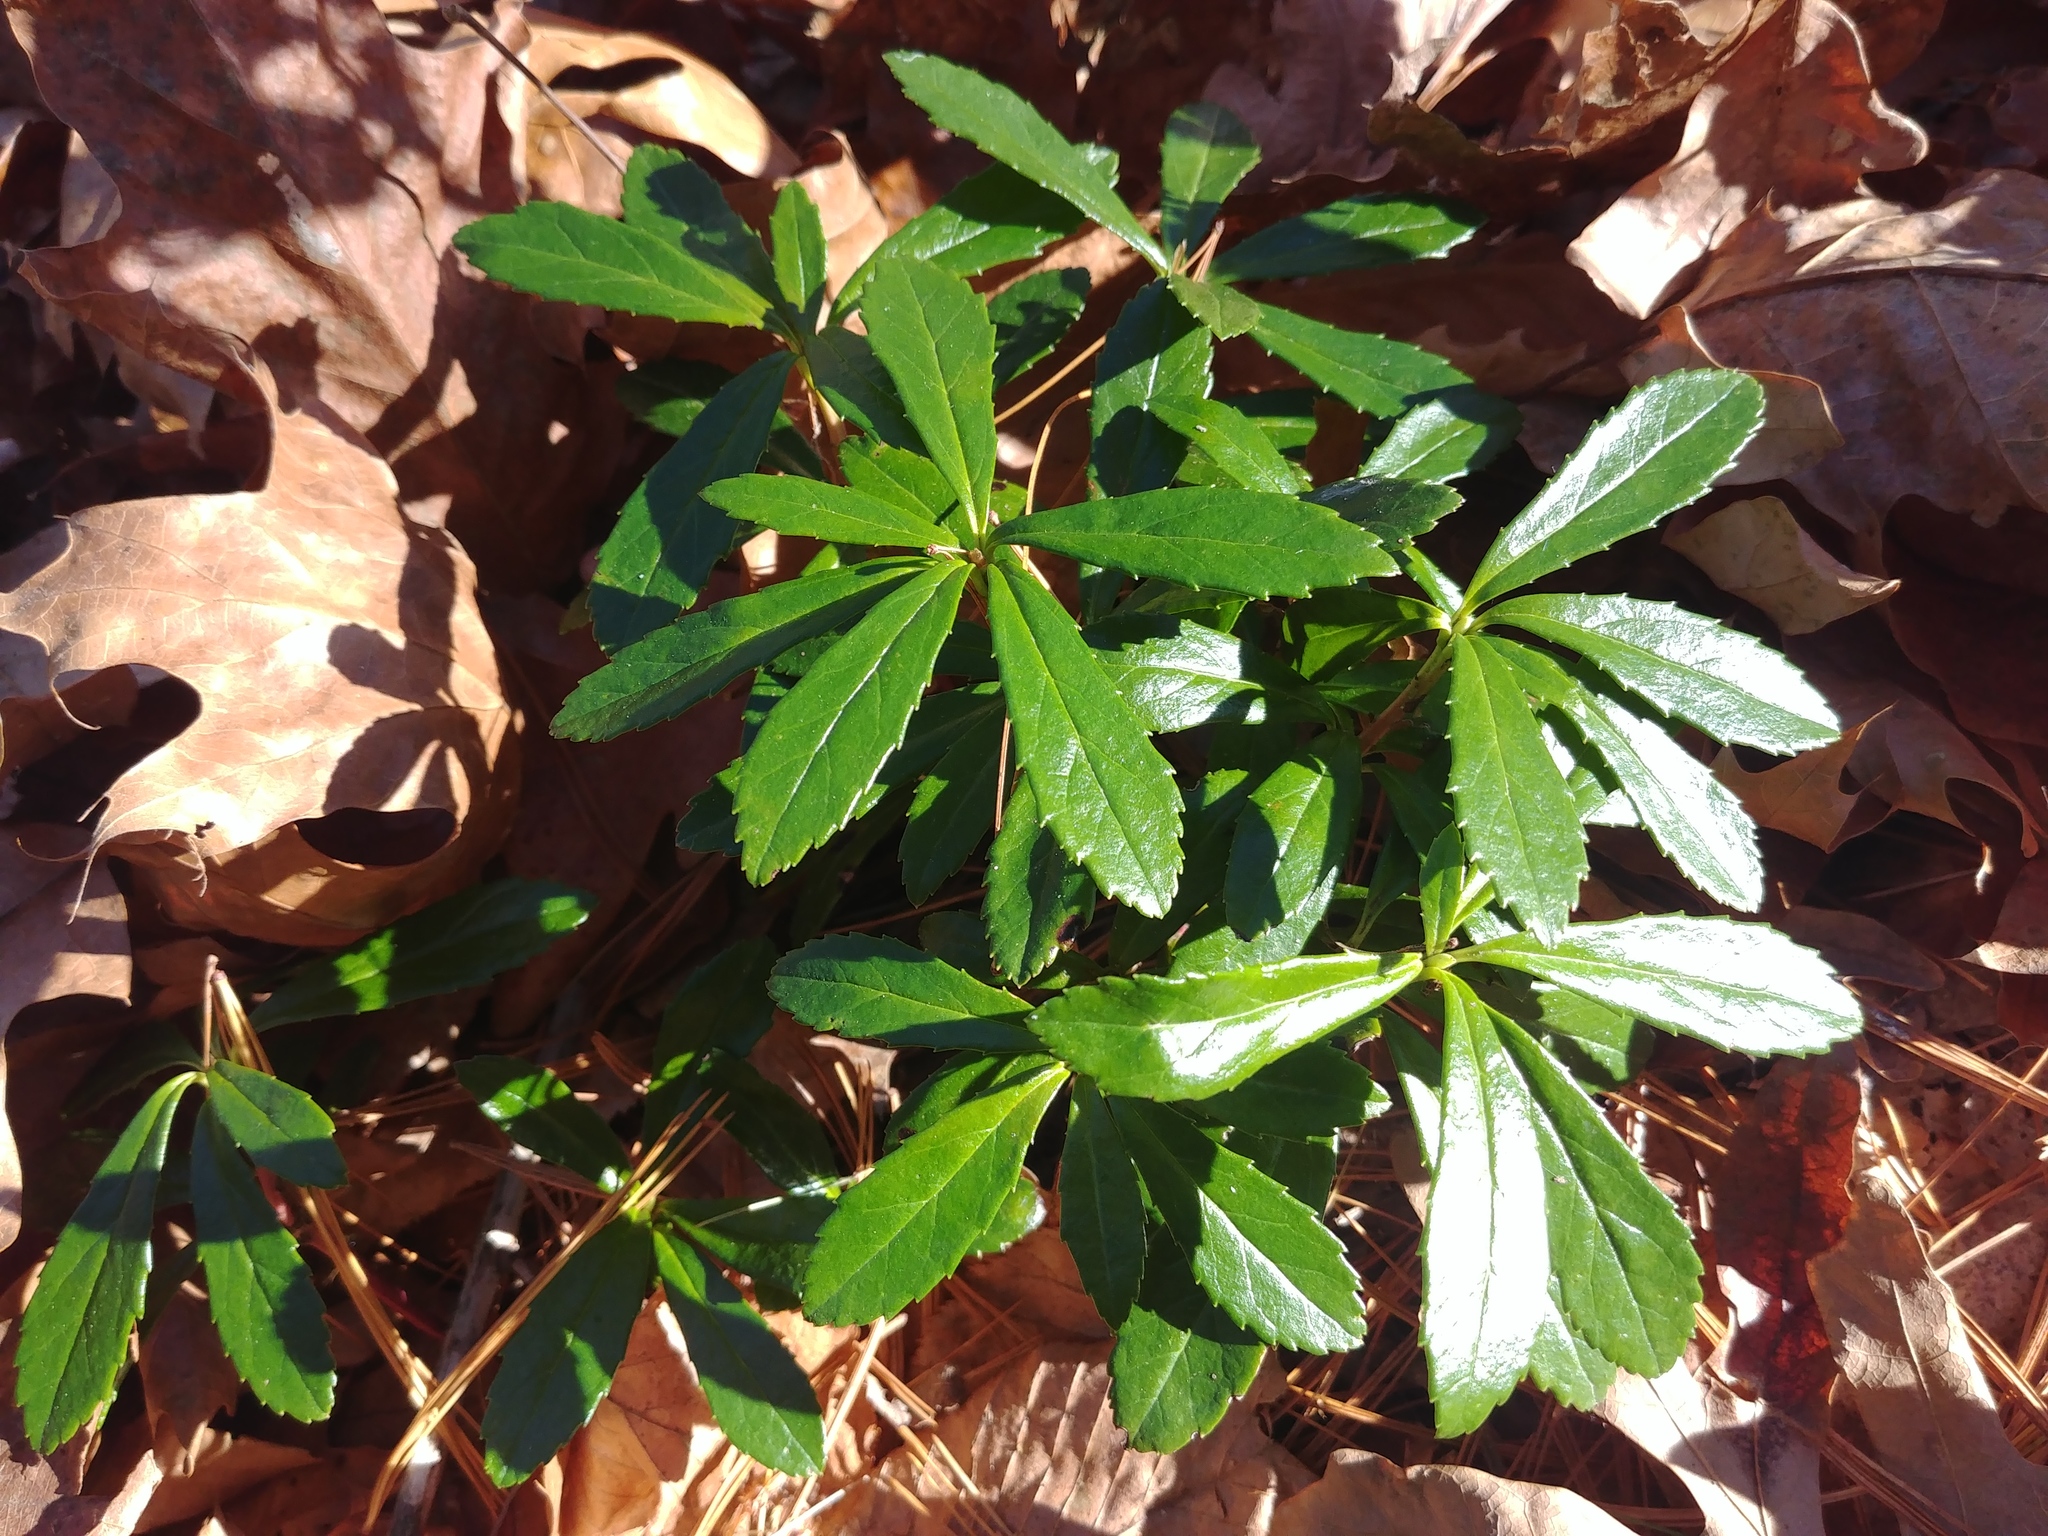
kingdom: Plantae
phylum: Tracheophyta
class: Magnoliopsida
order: Ericales
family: Ericaceae
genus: Chimaphila
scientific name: Chimaphila umbellata
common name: Pipsissewa
